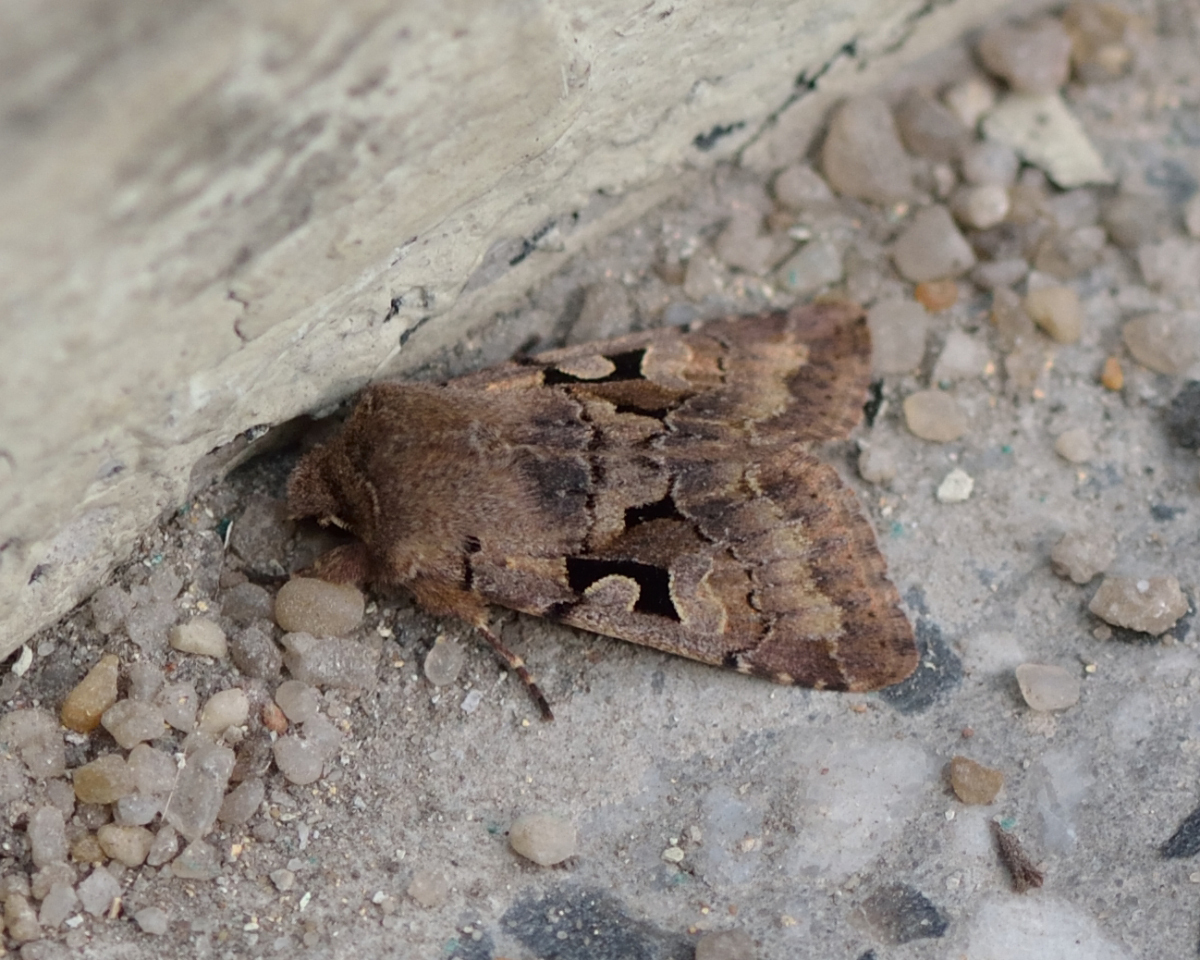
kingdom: Animalia
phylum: Arthropoda
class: Insecta
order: Lepidoptera
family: Noctuidae
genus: Orthosia
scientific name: Orthosia gothica
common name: Hebrew character
